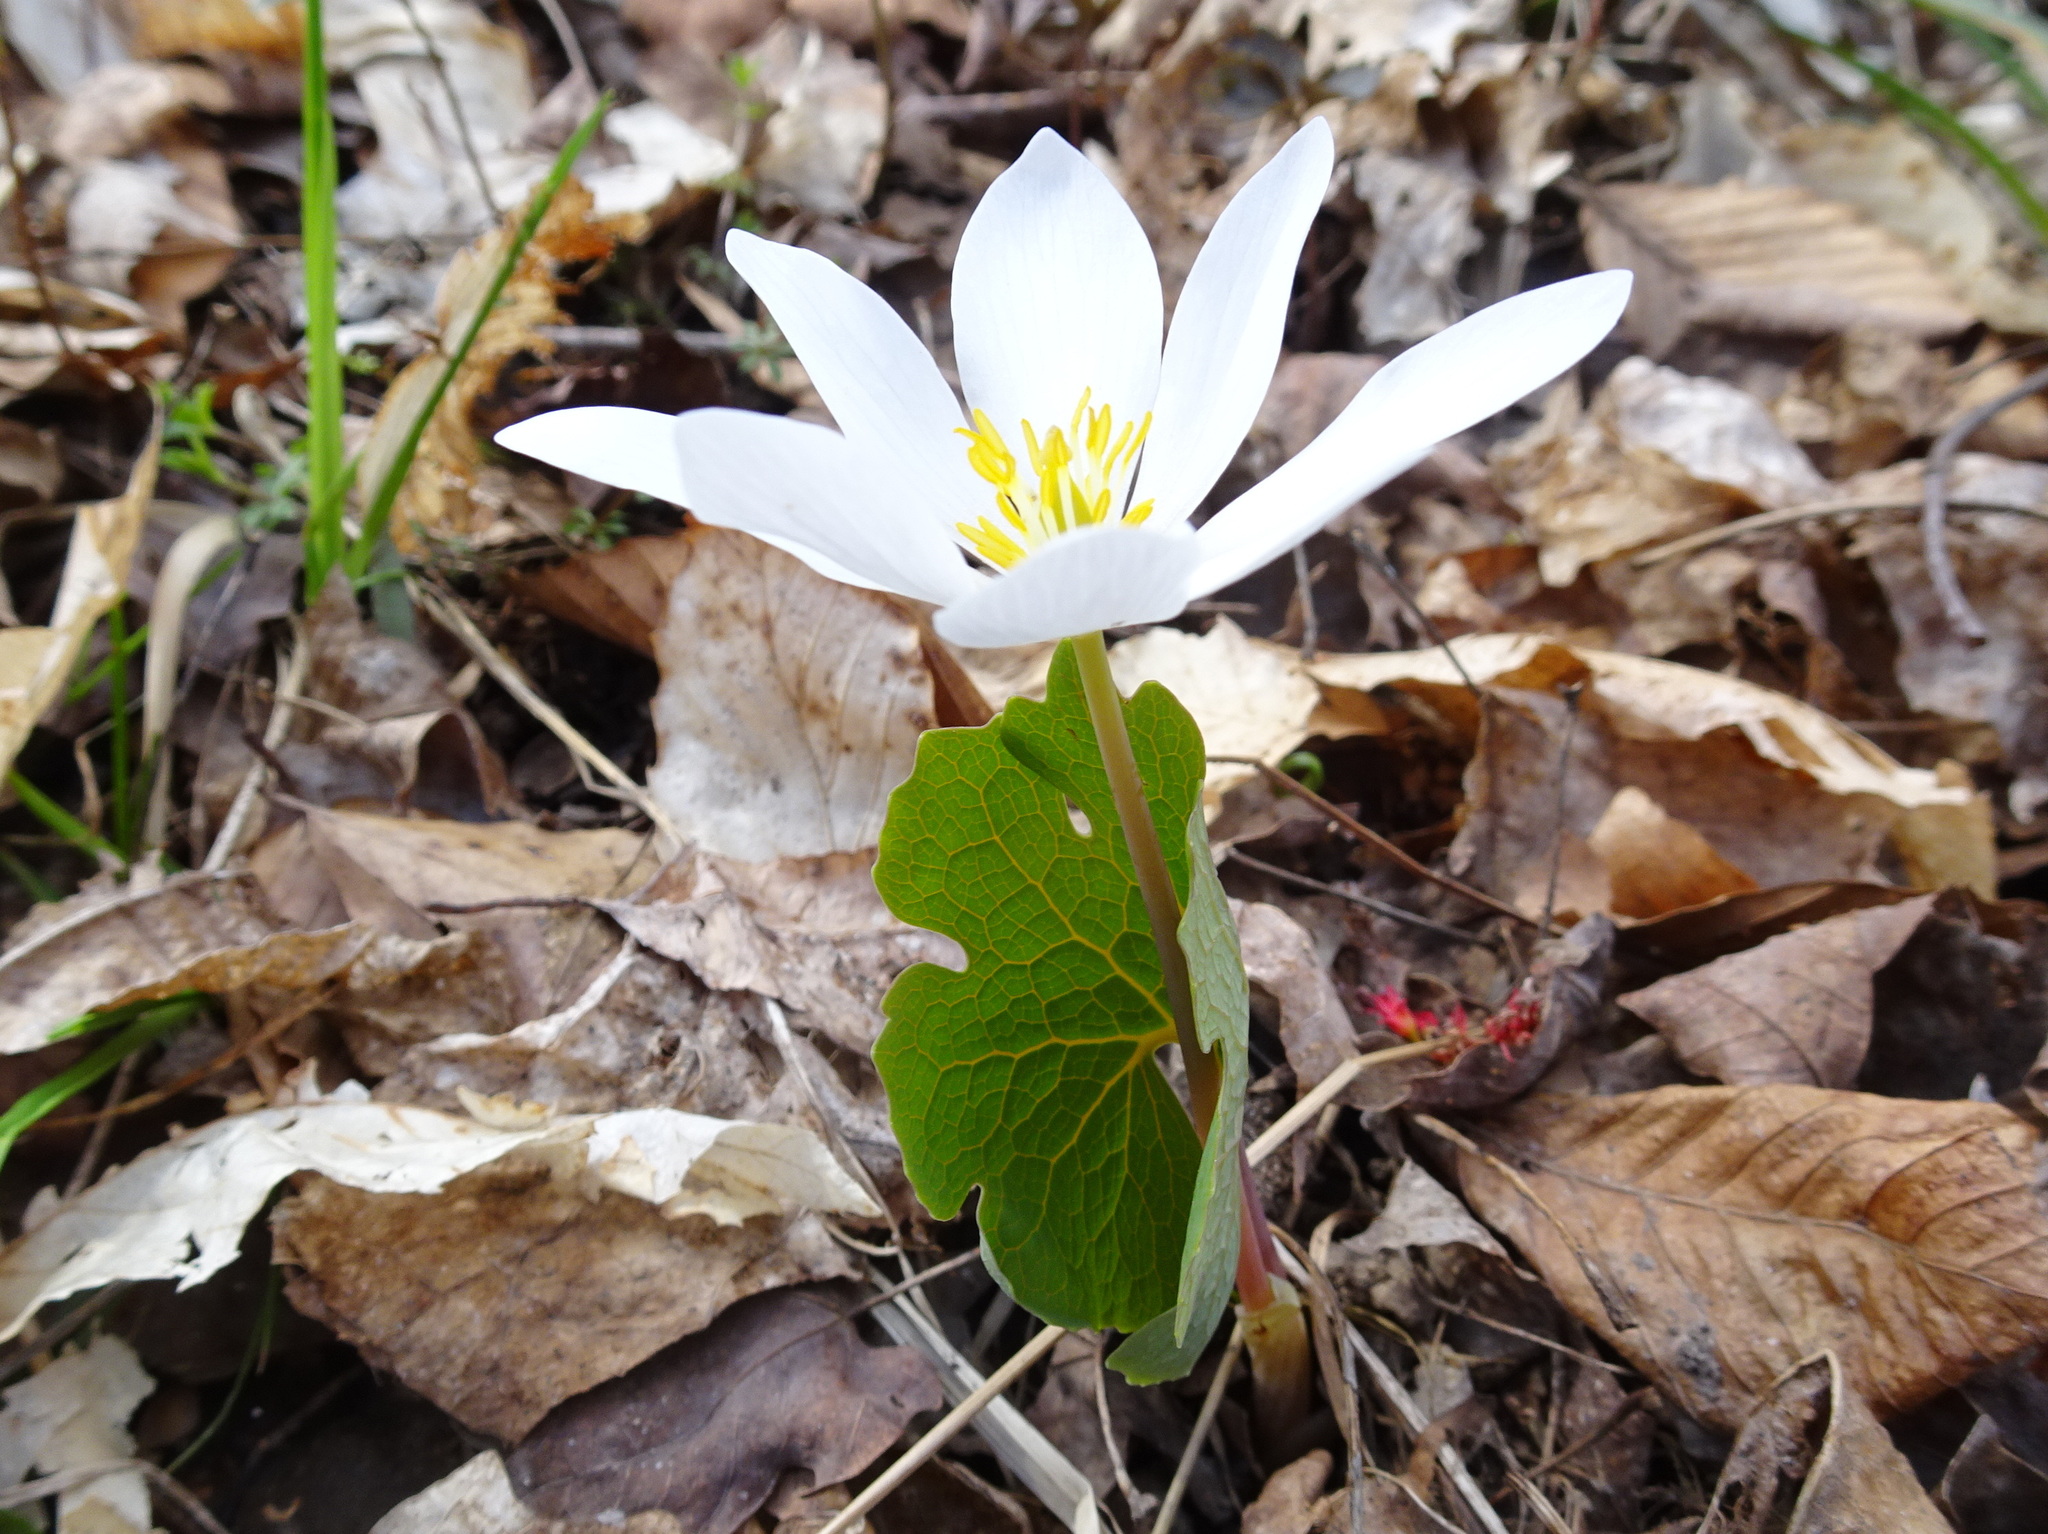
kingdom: Plantae
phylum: Tracheophyta
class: Magnoliopsida
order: Ranunculales
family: Papaveraceae
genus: Sanguinaria
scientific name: Sanguinaria canadensis
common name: Bloodroot
